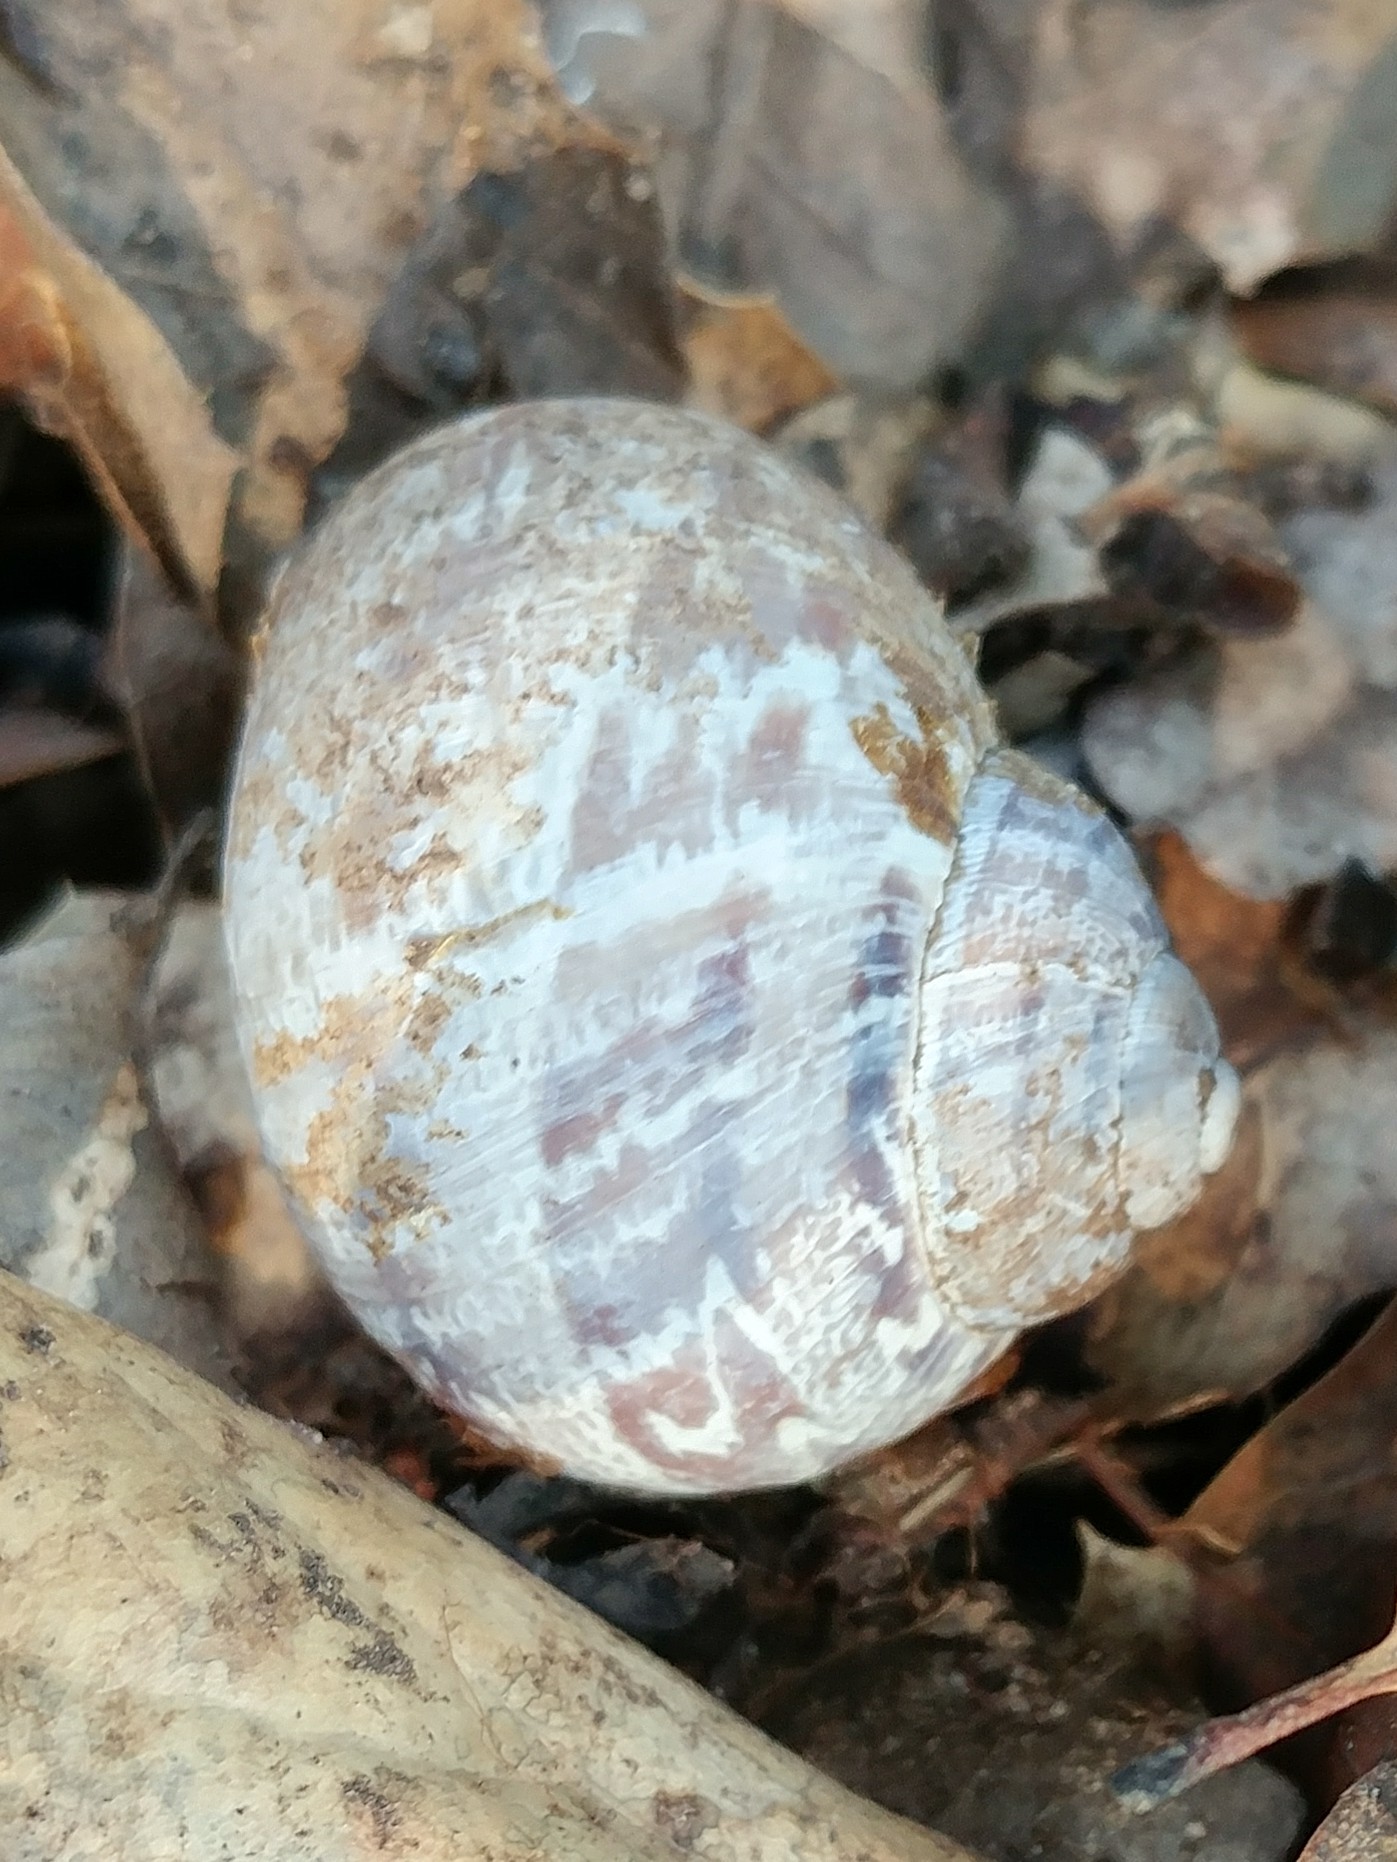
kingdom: Animalia
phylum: Mollusca
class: Gastropoda
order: Stylommatophora
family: Helicidae
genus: Cornu
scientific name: Cornu aspersum
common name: Brown garden snail
